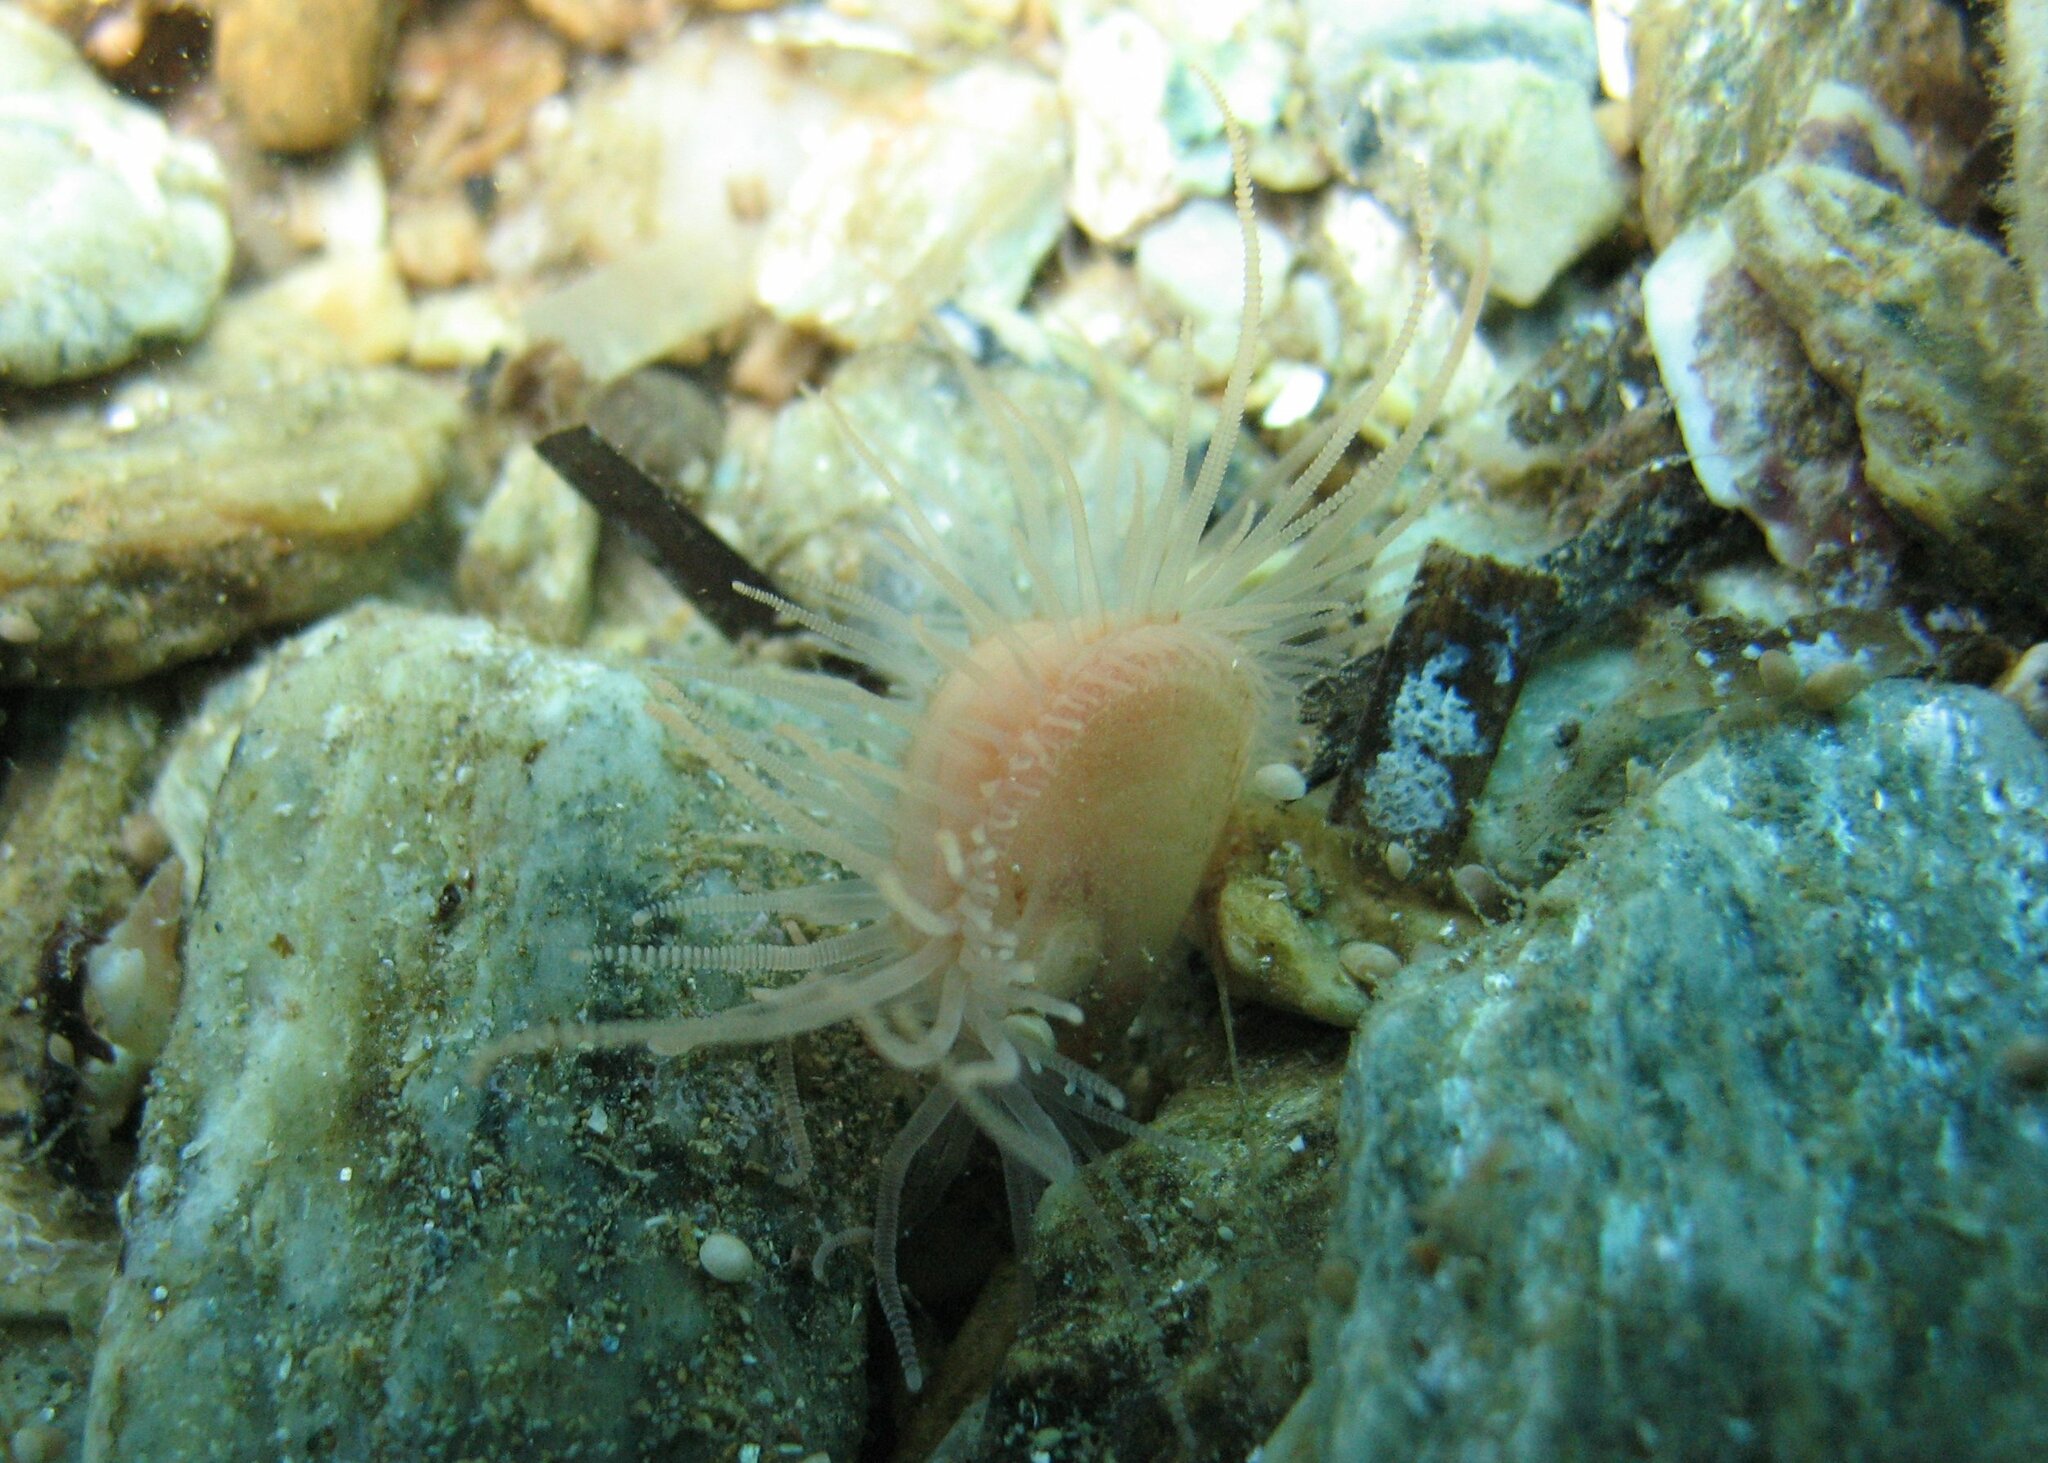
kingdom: Animalia
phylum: Mollusca
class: Bivalvia
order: Limida
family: Limidae
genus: Limaria
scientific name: Limaria hians
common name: Gaping file shale
